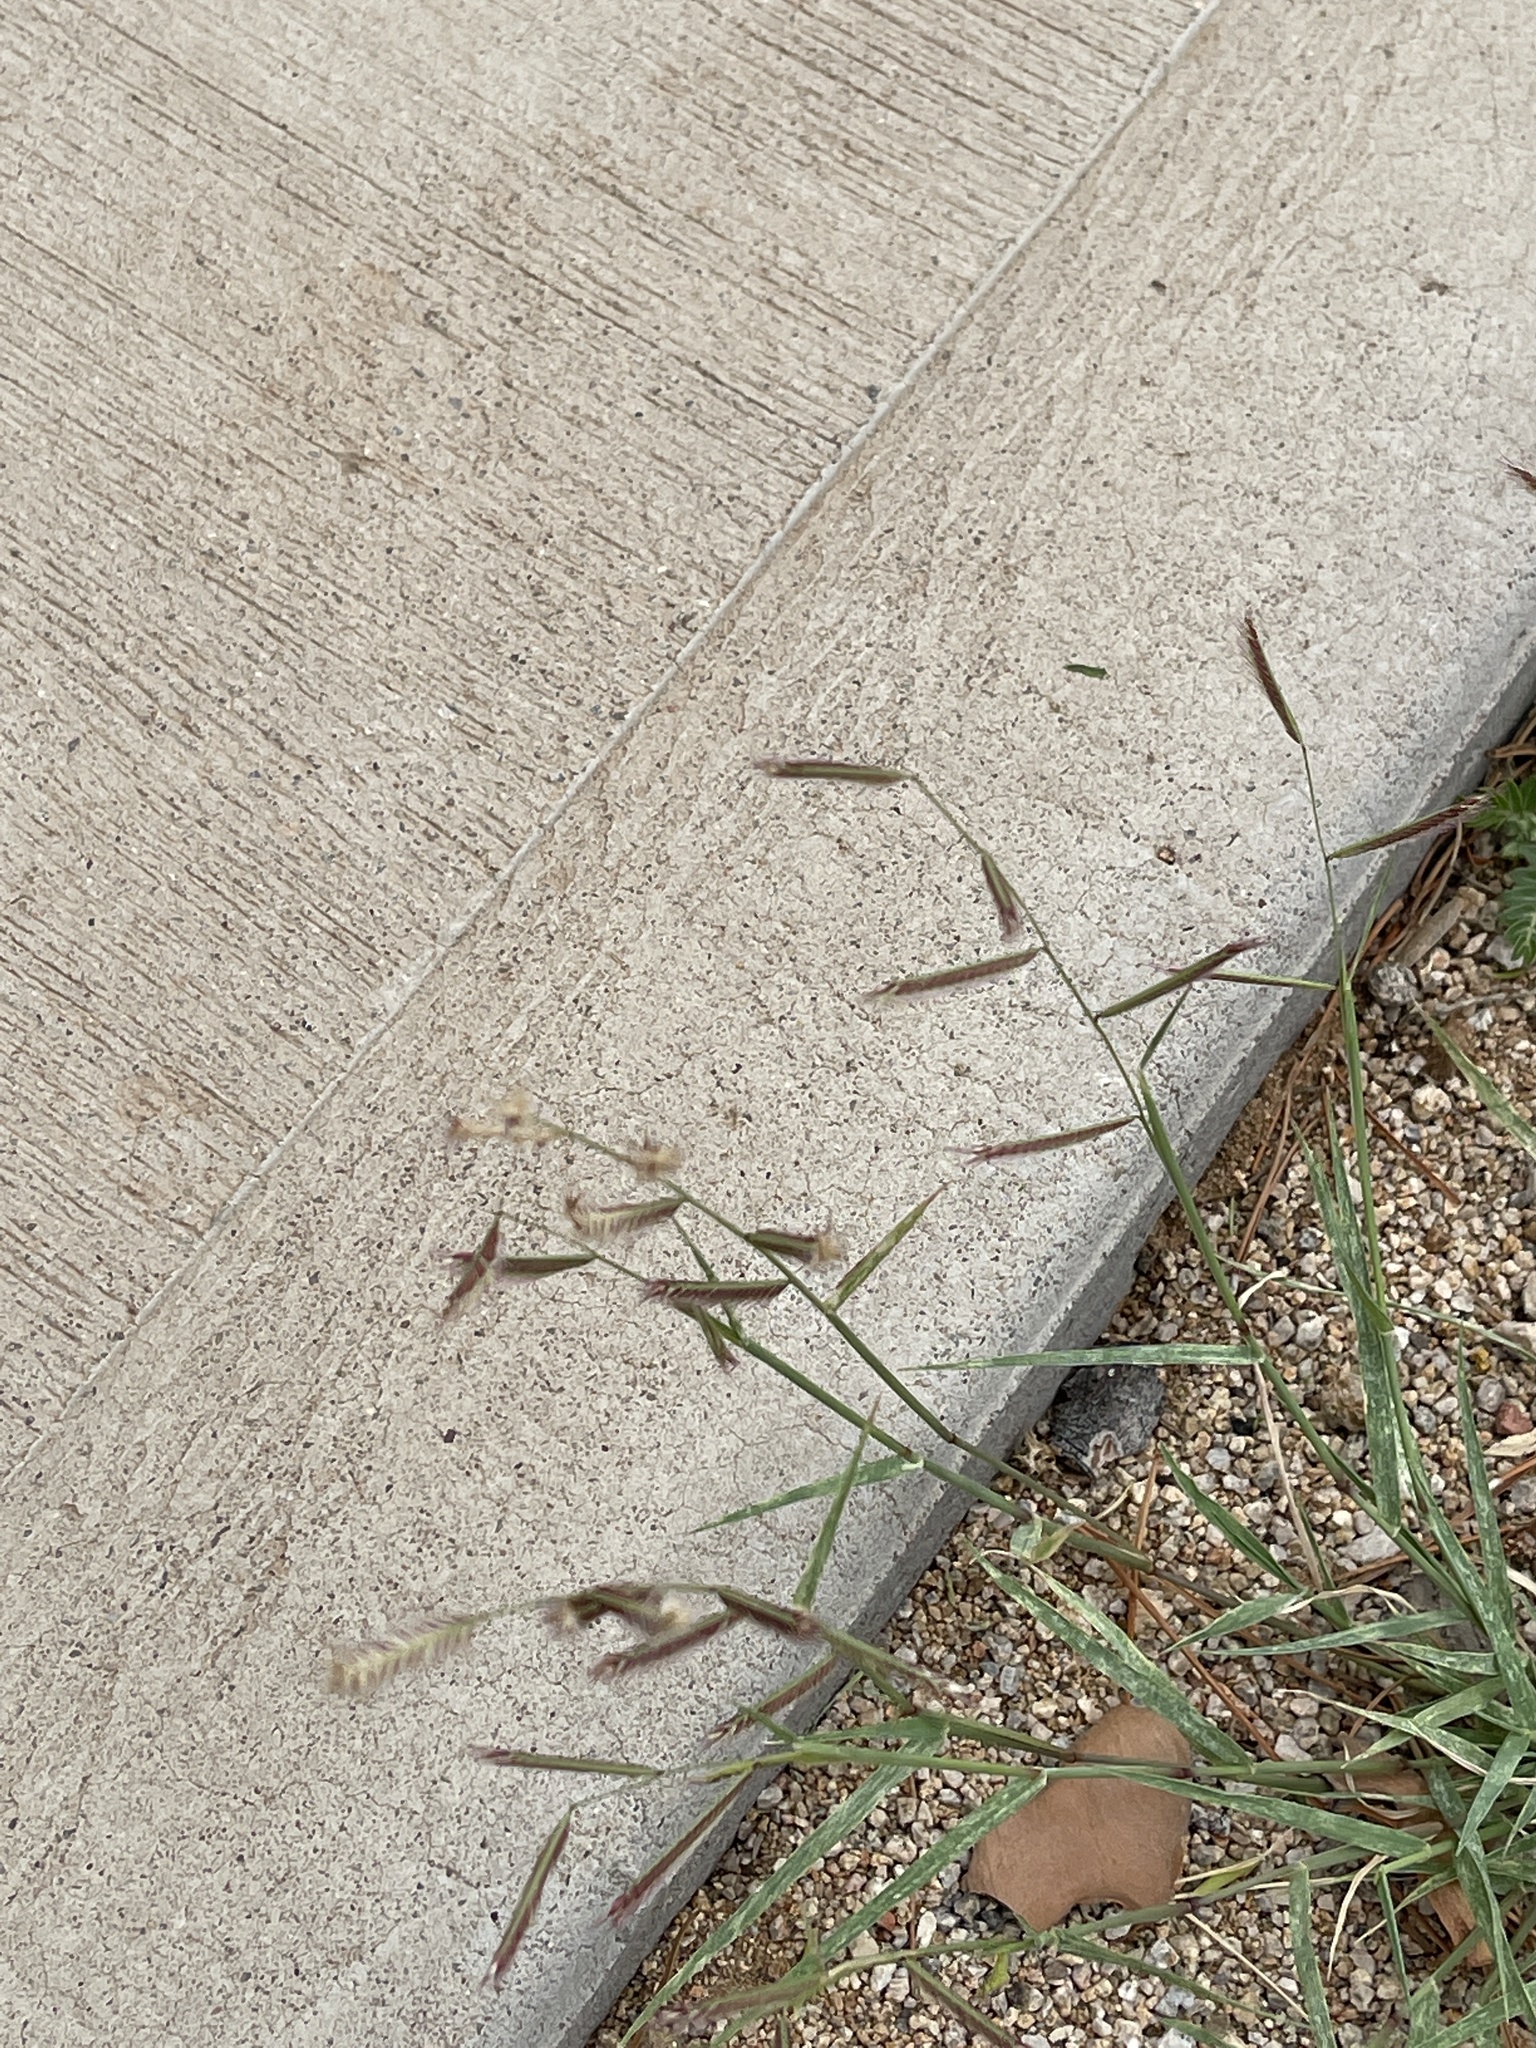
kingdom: Plantae
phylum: Tracheophyta
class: Liliopsida
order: Poales
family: Poaceae
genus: Bouteloua
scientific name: Bouteloua barbata
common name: Six-weeks grama
